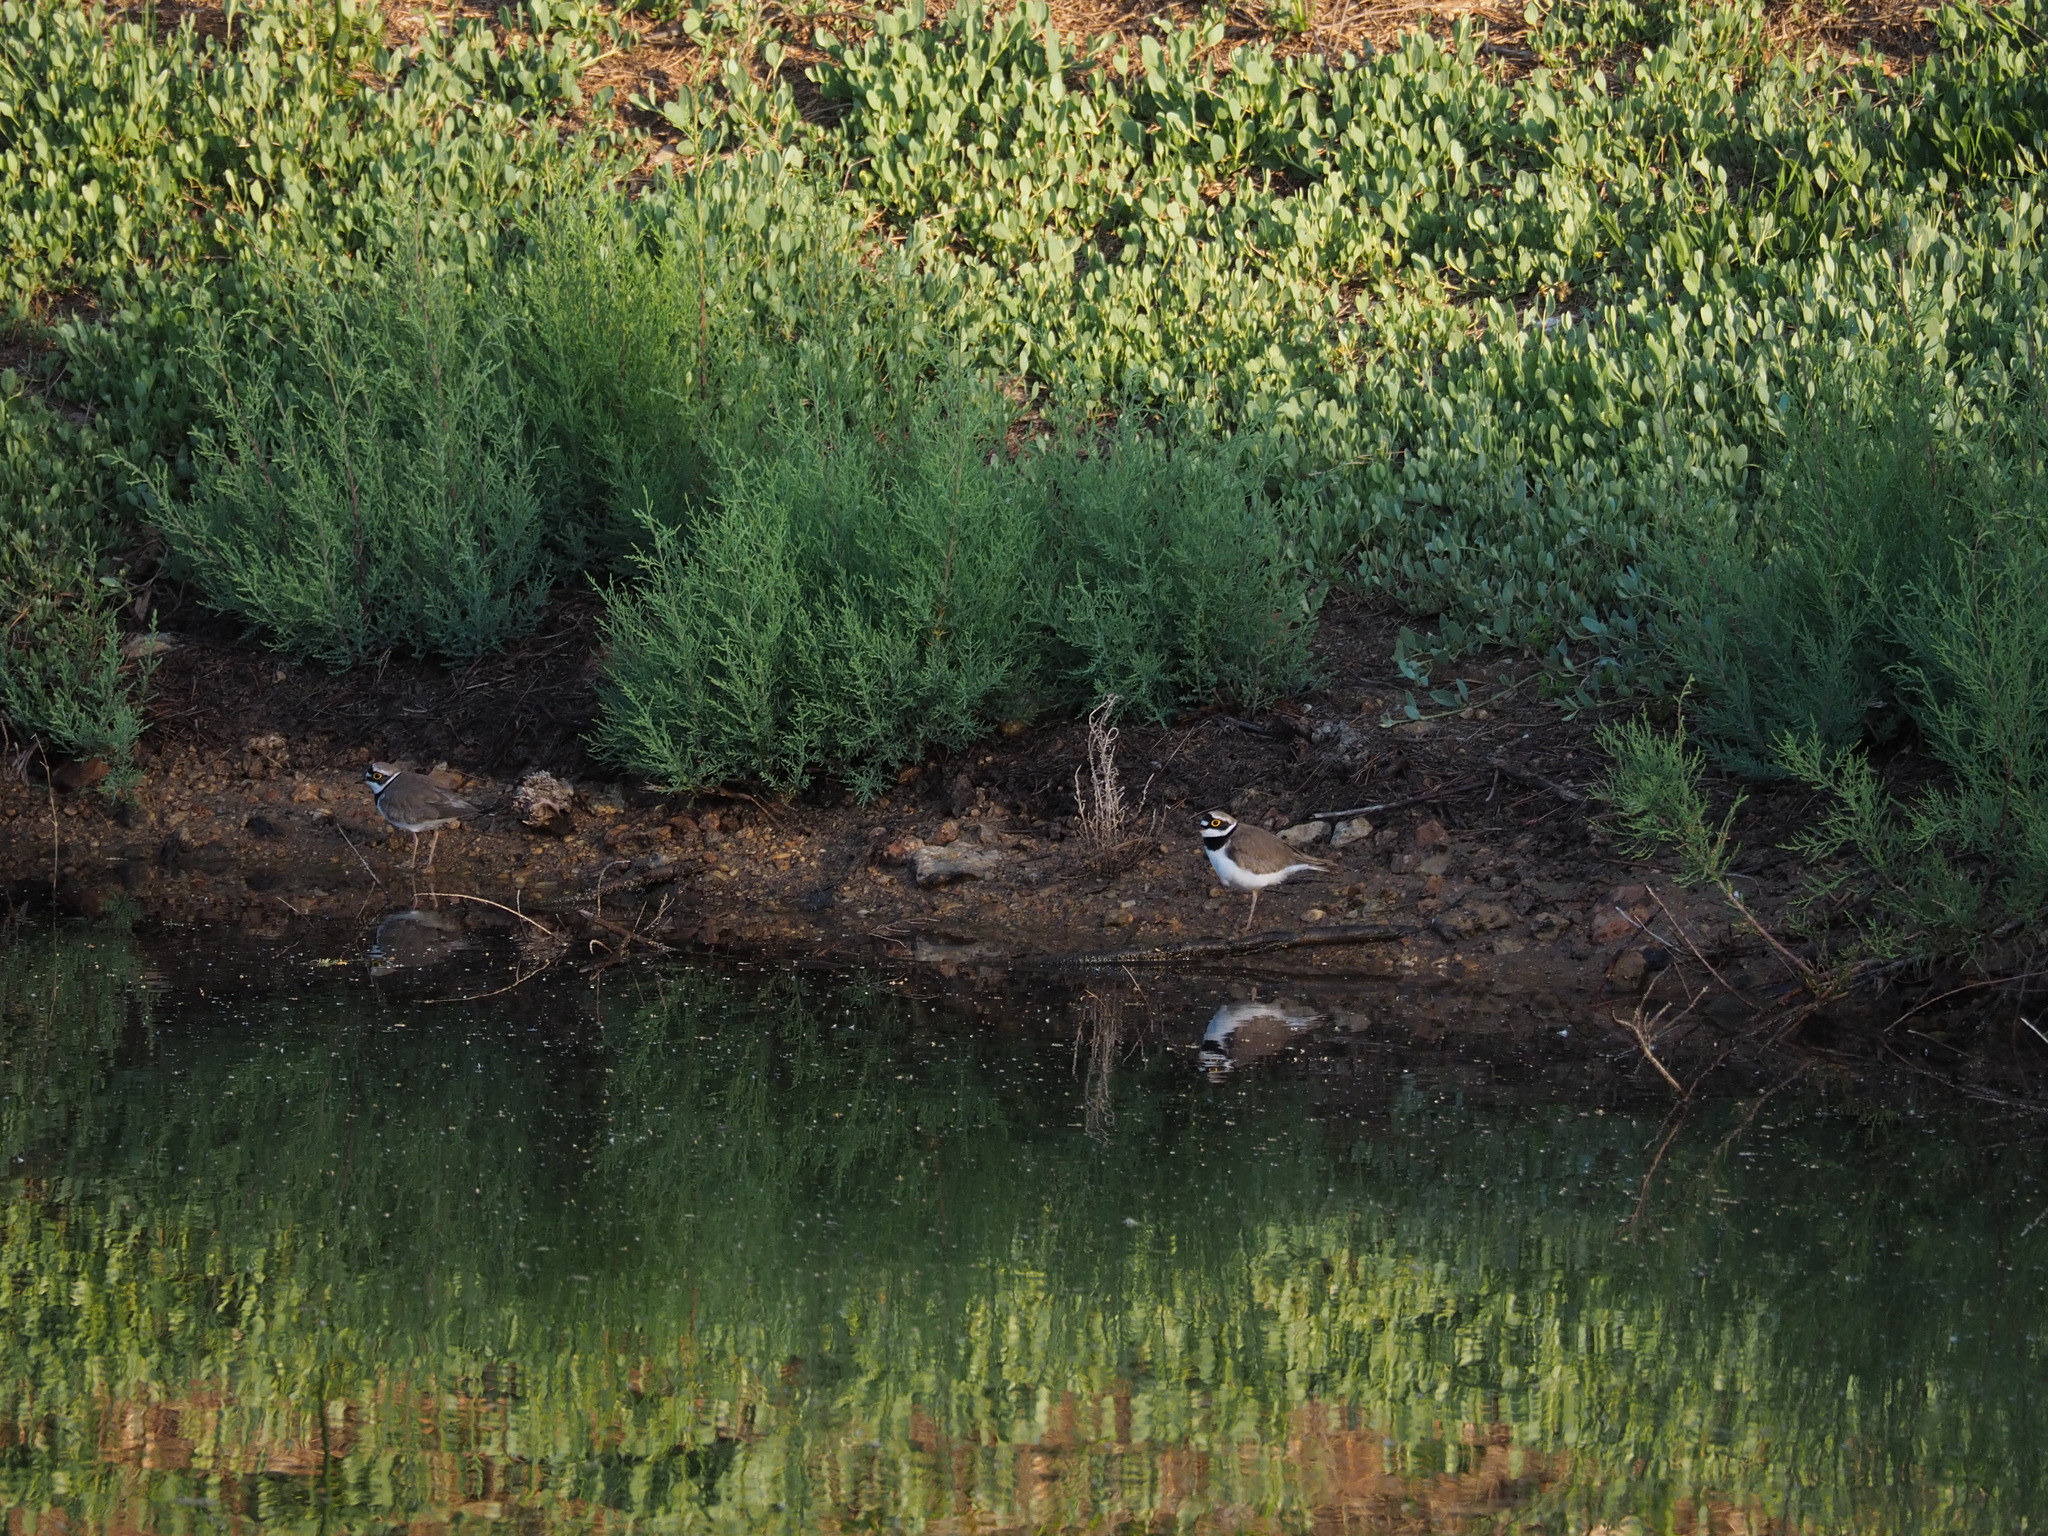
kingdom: Animalia
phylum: Chordata
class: Aves
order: Charadriiformes
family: Charadriidae
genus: Charadrius
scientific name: Charadrius dubius
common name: Little ringed plover
